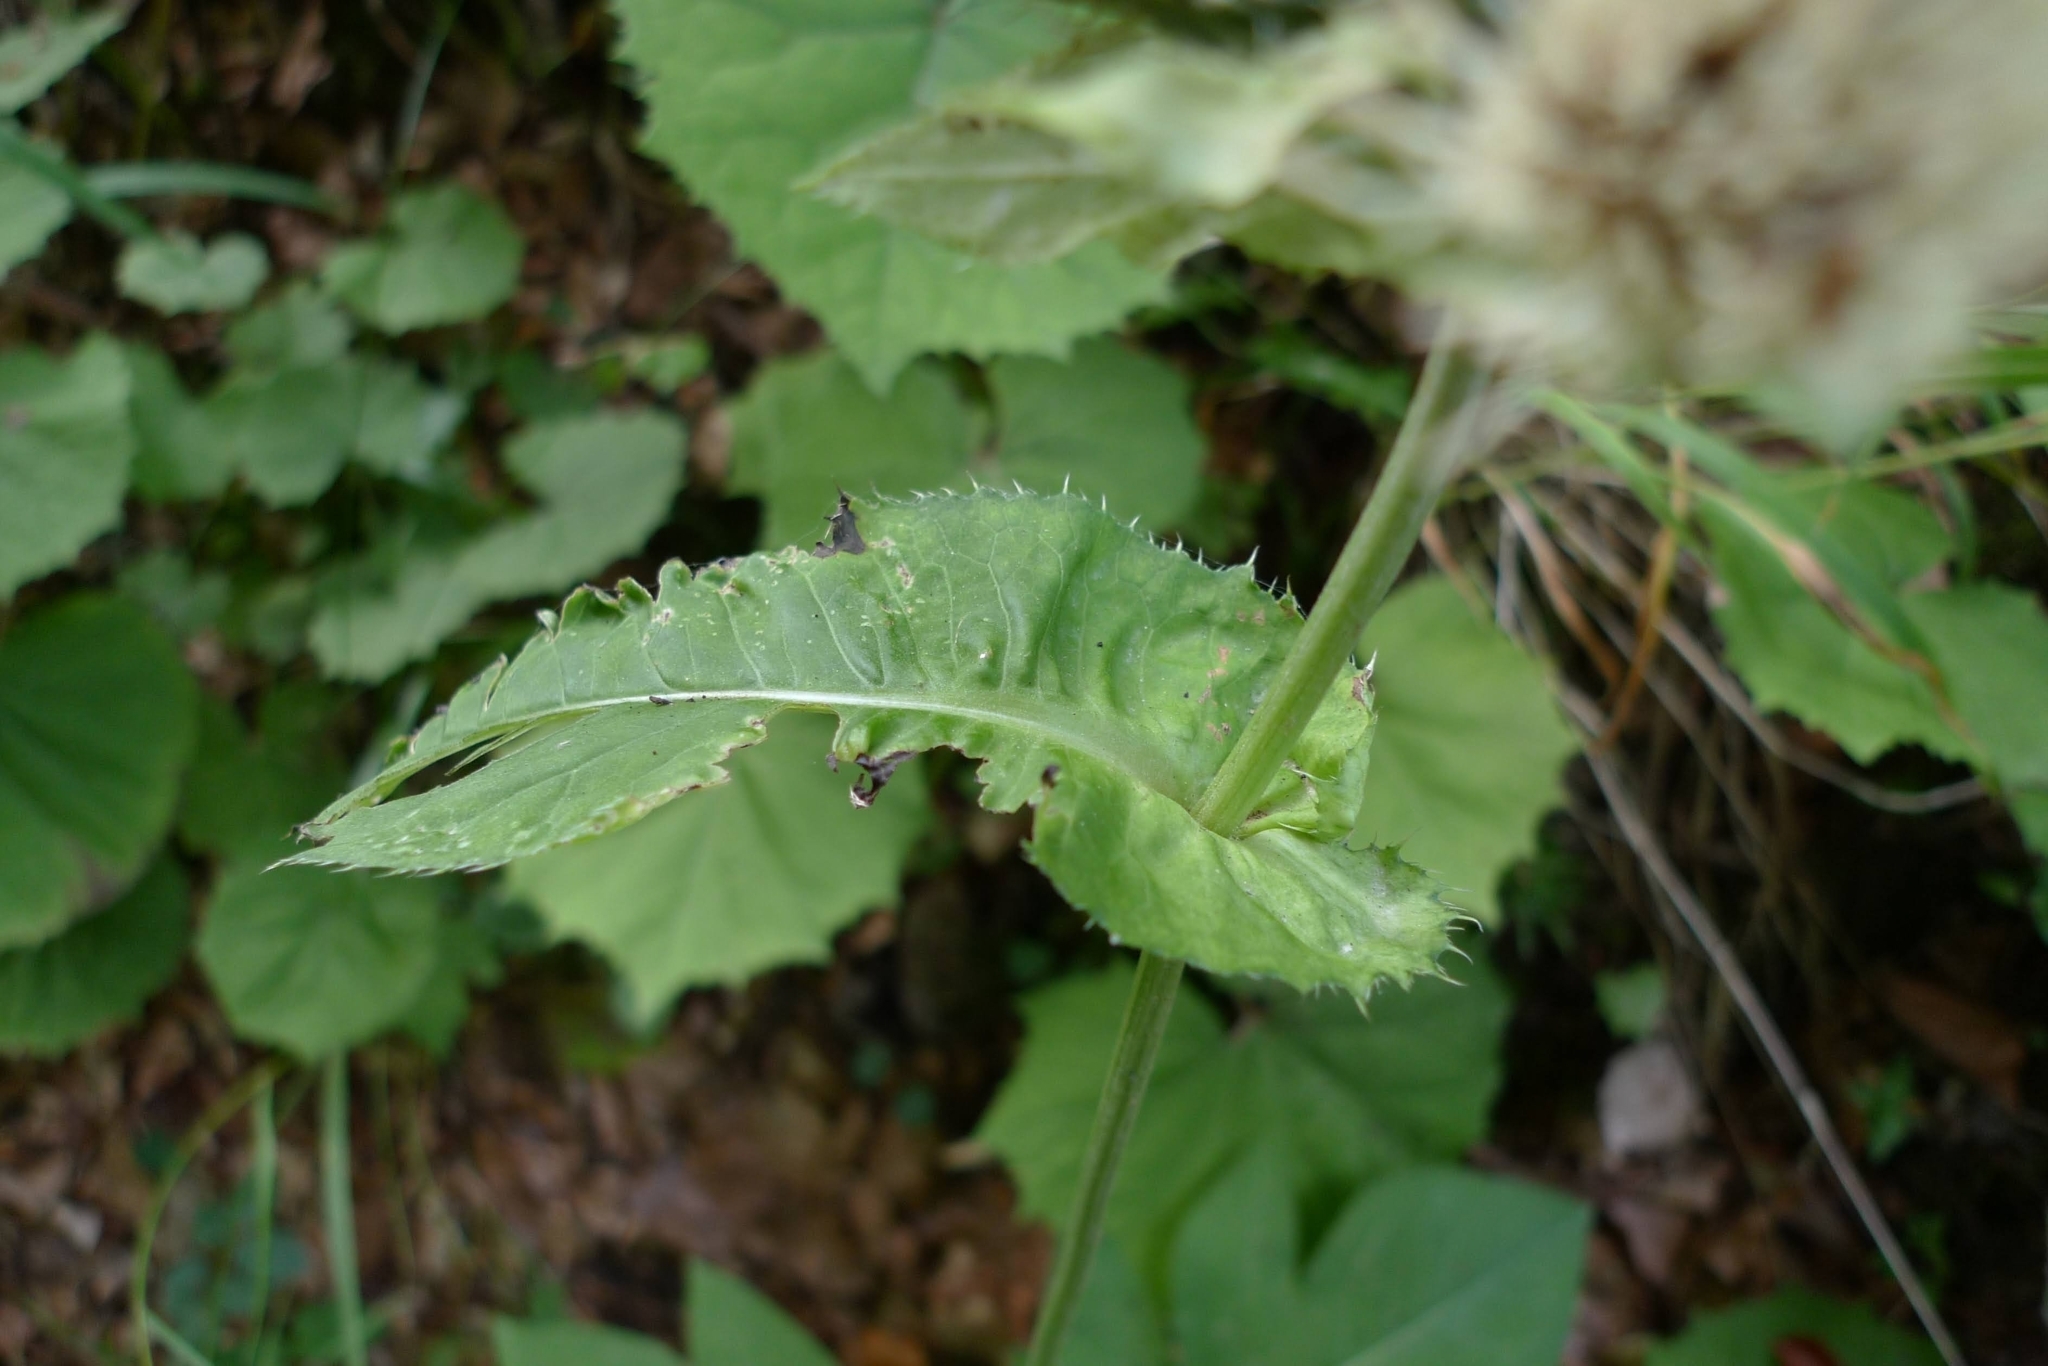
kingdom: Plantae
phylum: Tracheophyta
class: Magnoliopsida
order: Asterales
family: Asteraceae
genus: Cirsium
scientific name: Cirsium oleraceum
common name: Cabbage thistle
